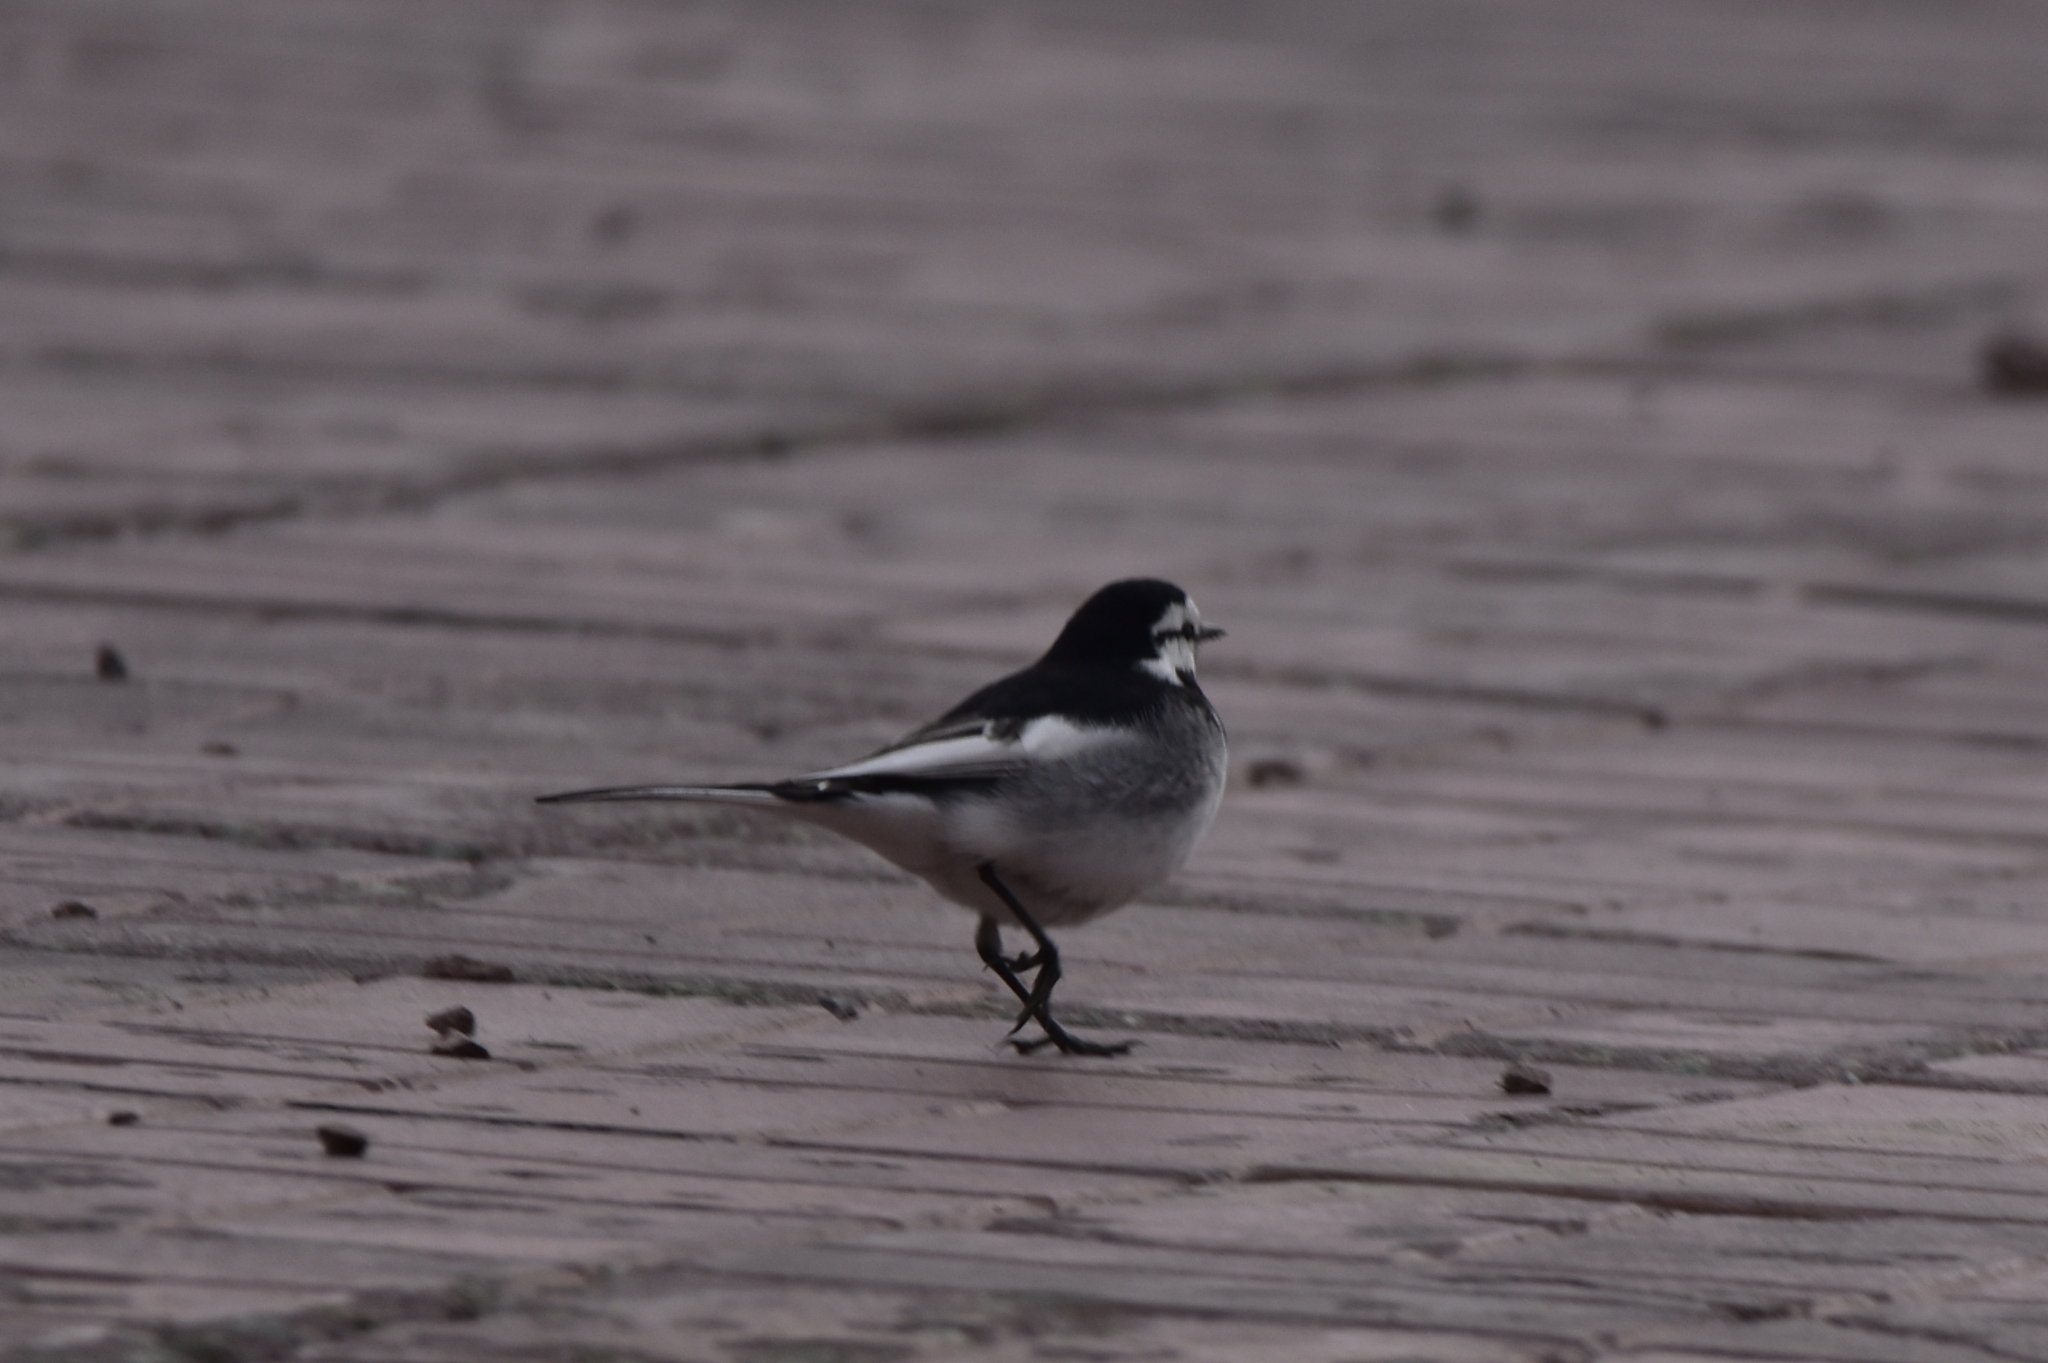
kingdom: Animalia
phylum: Chordata
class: Aves
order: Passeriformes
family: Motacillidae
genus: Motacilla
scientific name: Motacilla alba
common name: White wagtail
